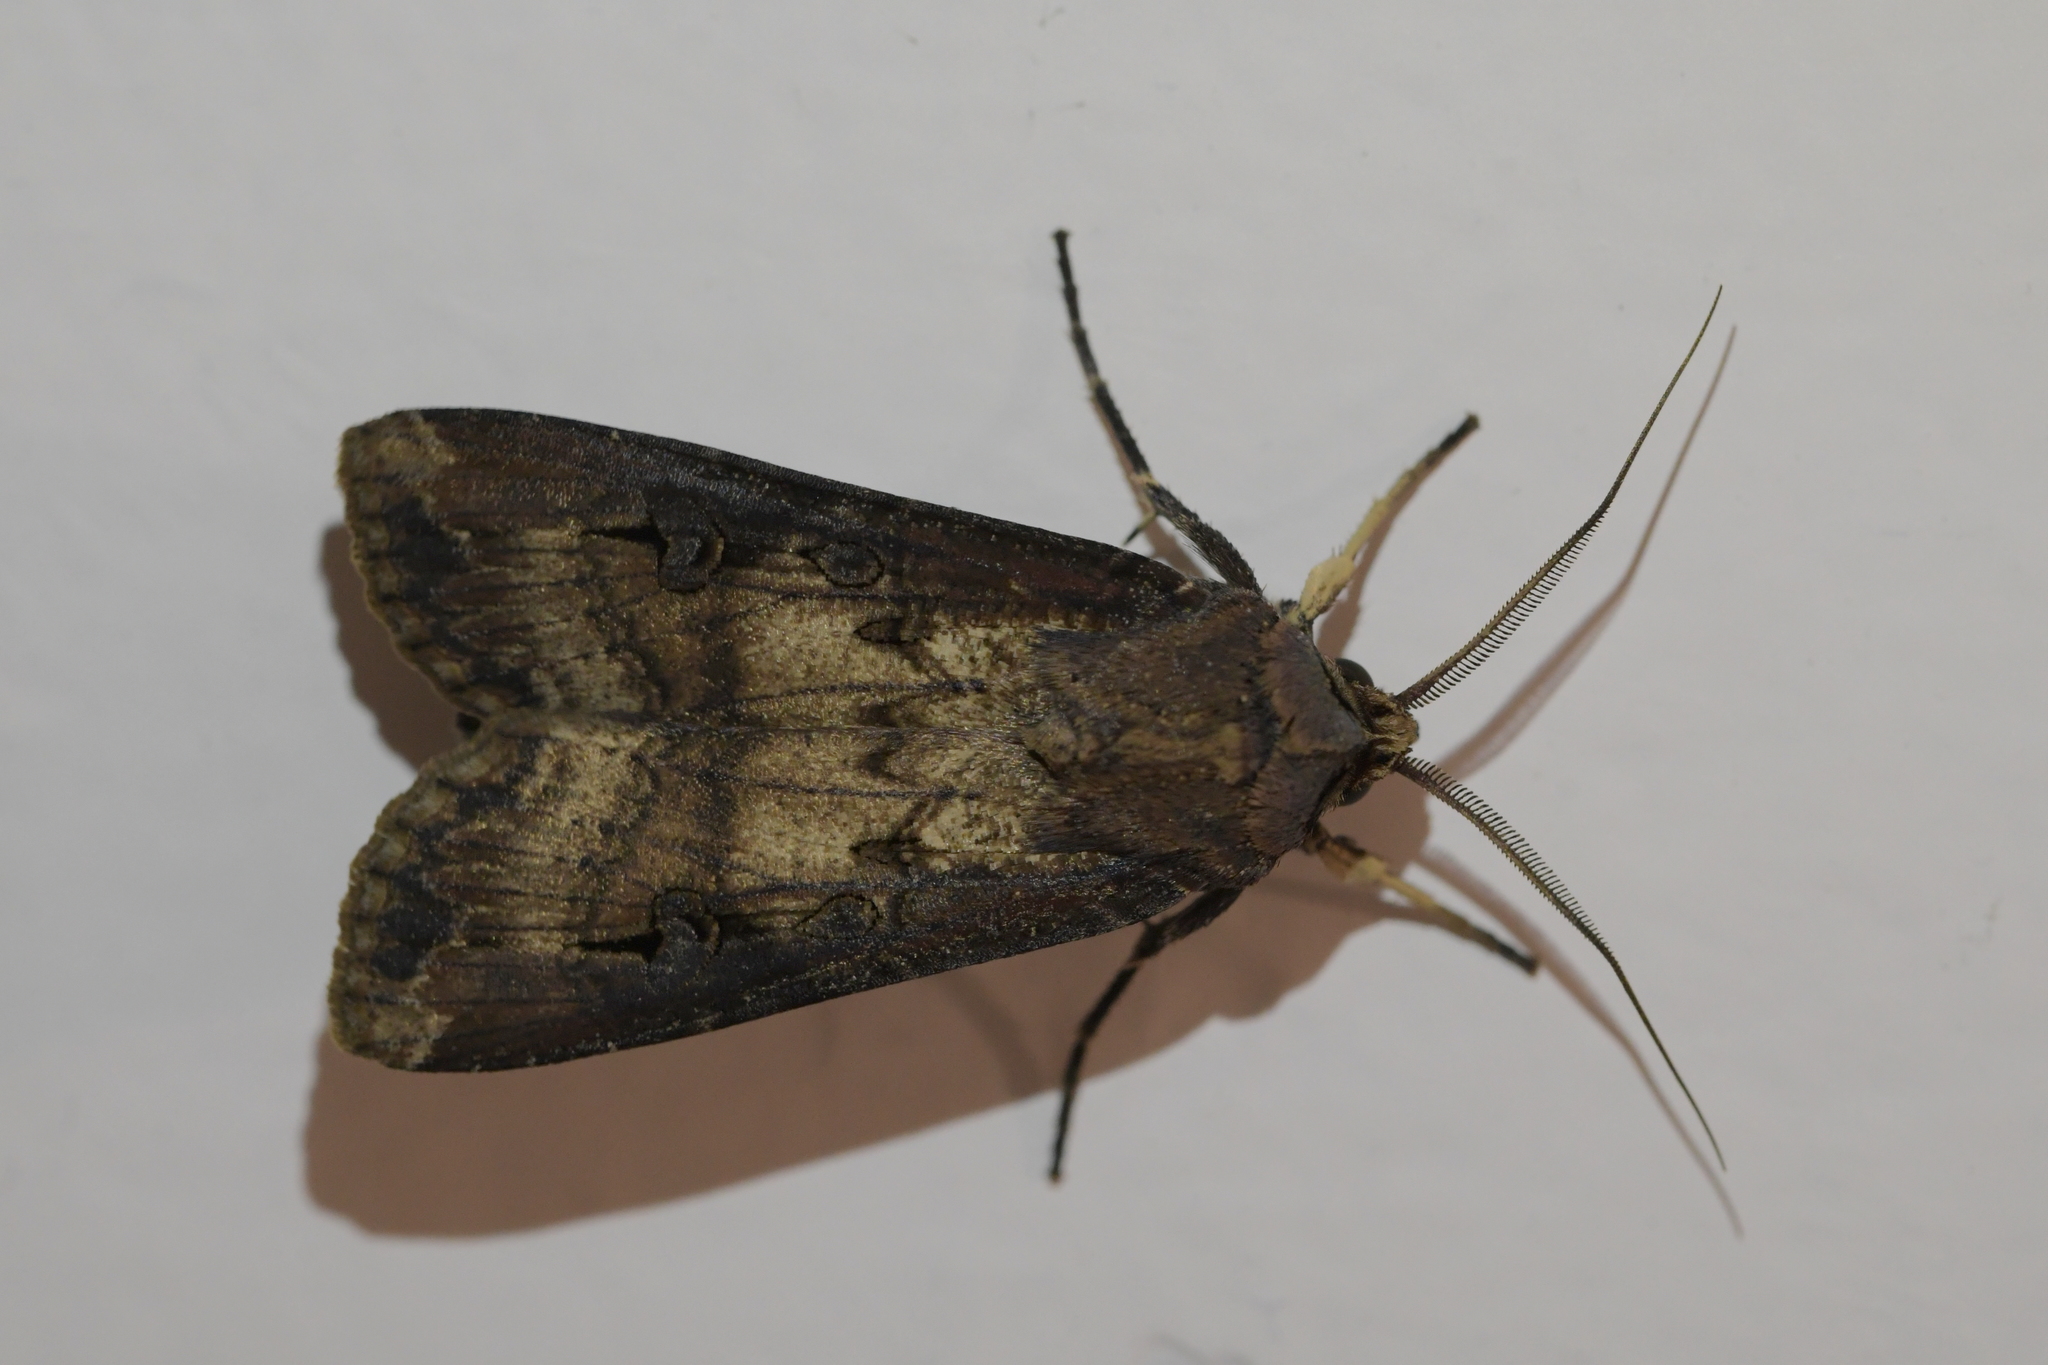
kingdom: Animalia
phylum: Arthropoda
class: Insecta
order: Lepidoptera
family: Noctuidae
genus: Agrotis
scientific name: Agrotis ipsilon
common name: Dark sword-grass
